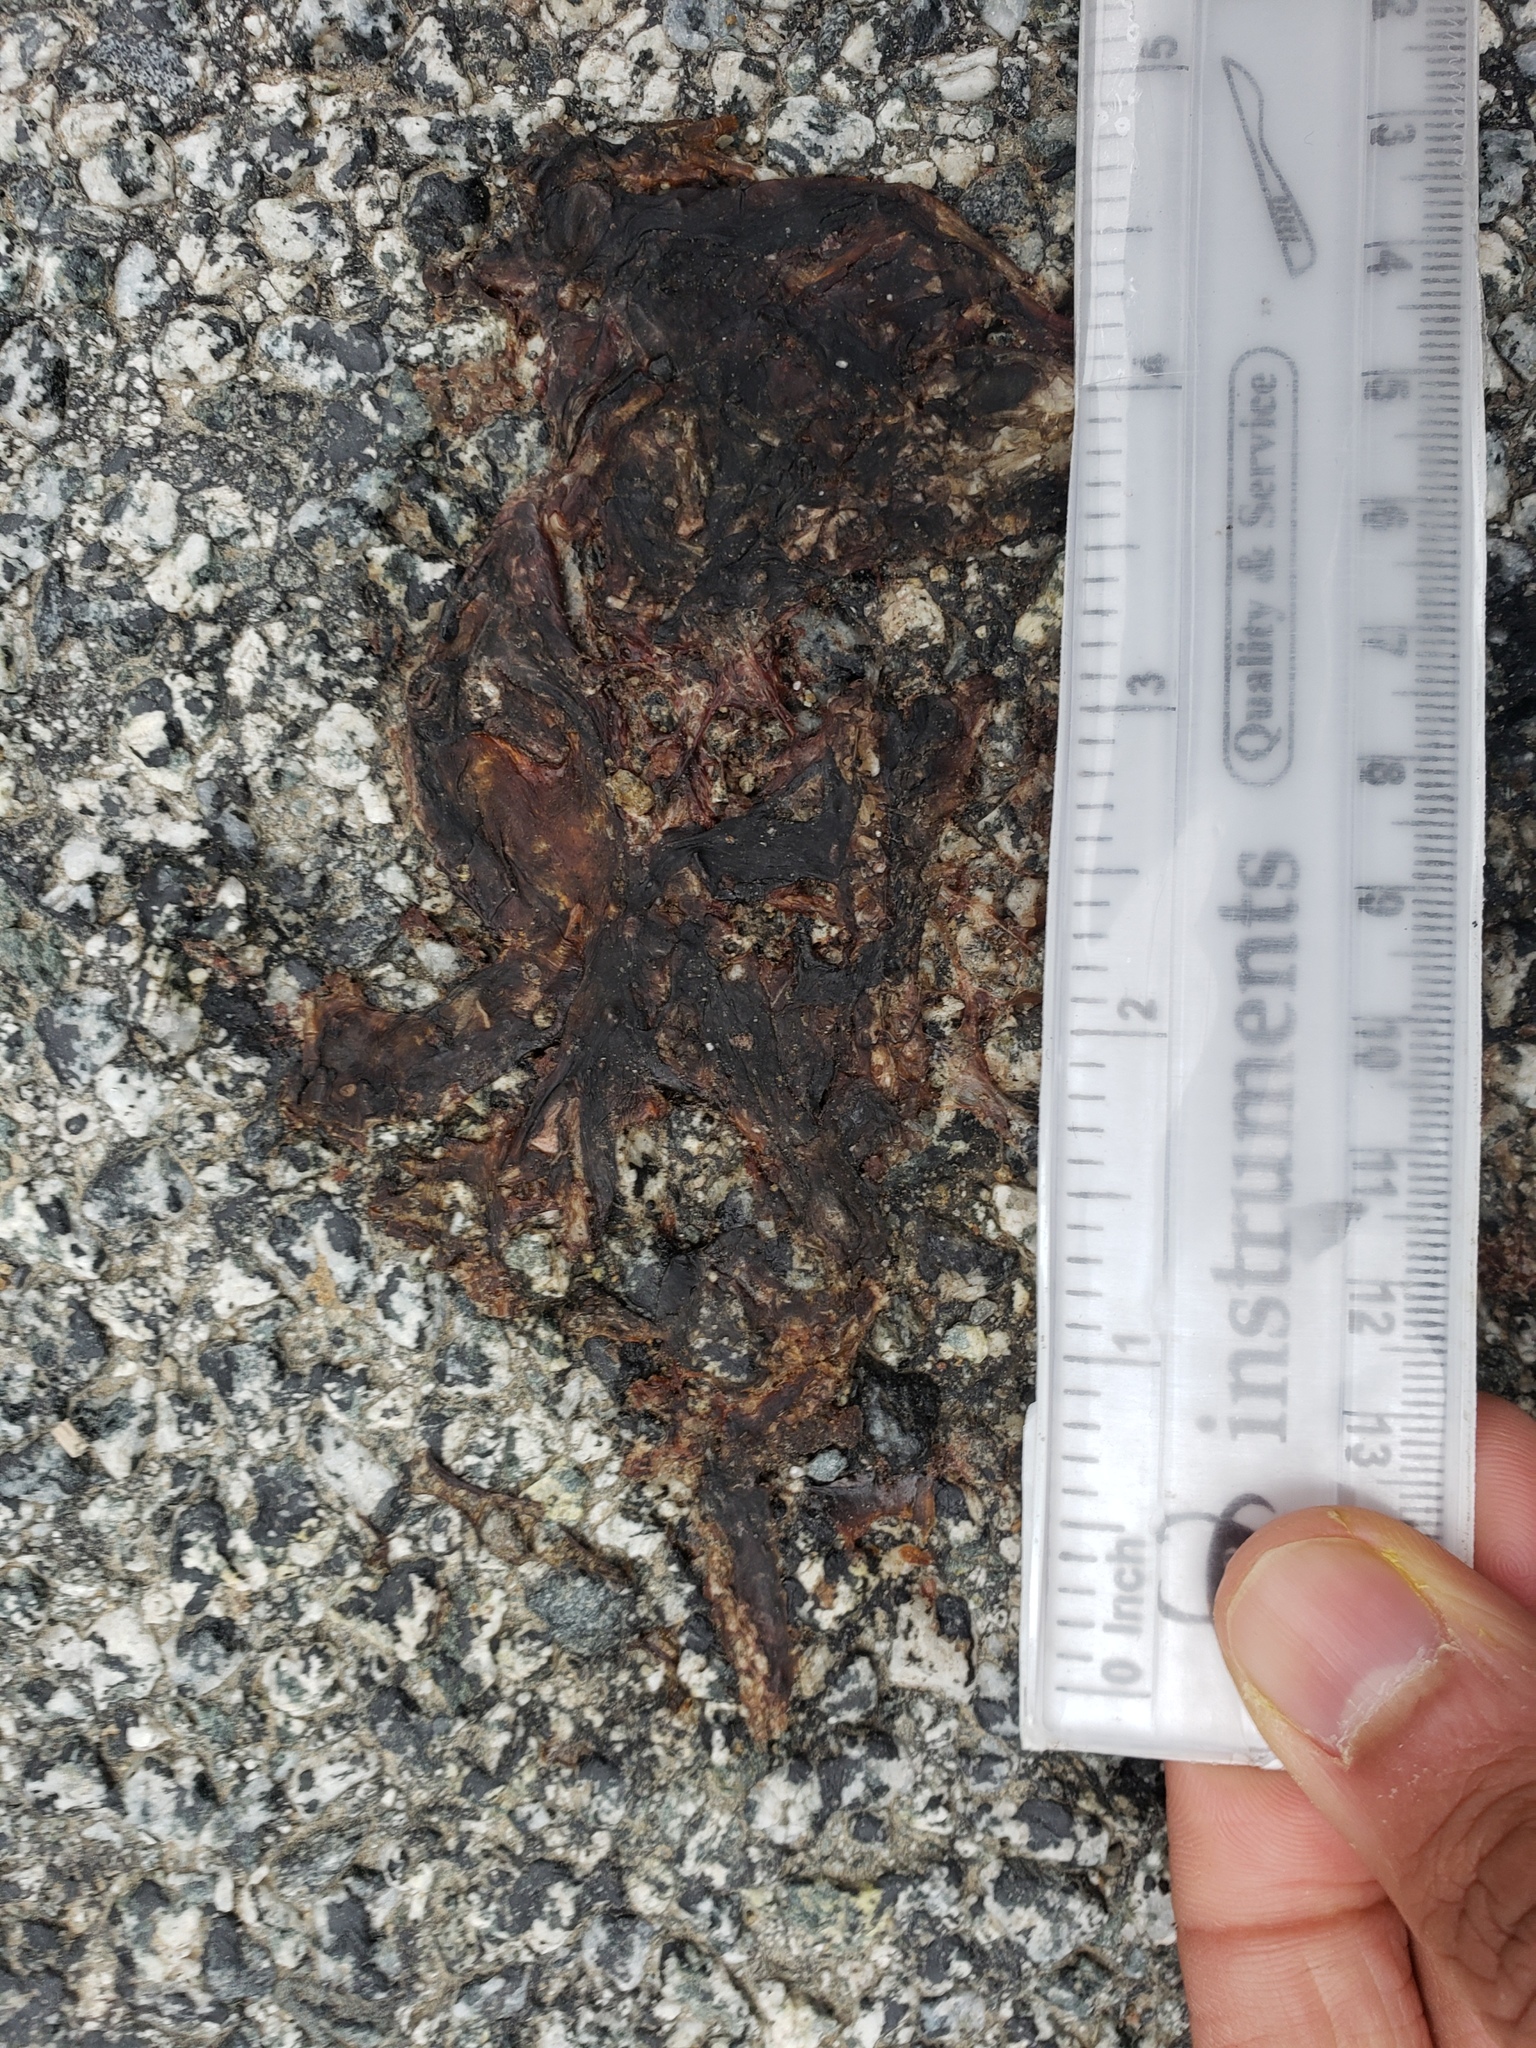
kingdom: Animalia
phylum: Chordata
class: Amphibia
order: Caudata
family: Salamandridae
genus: Taricha
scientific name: Taricha
